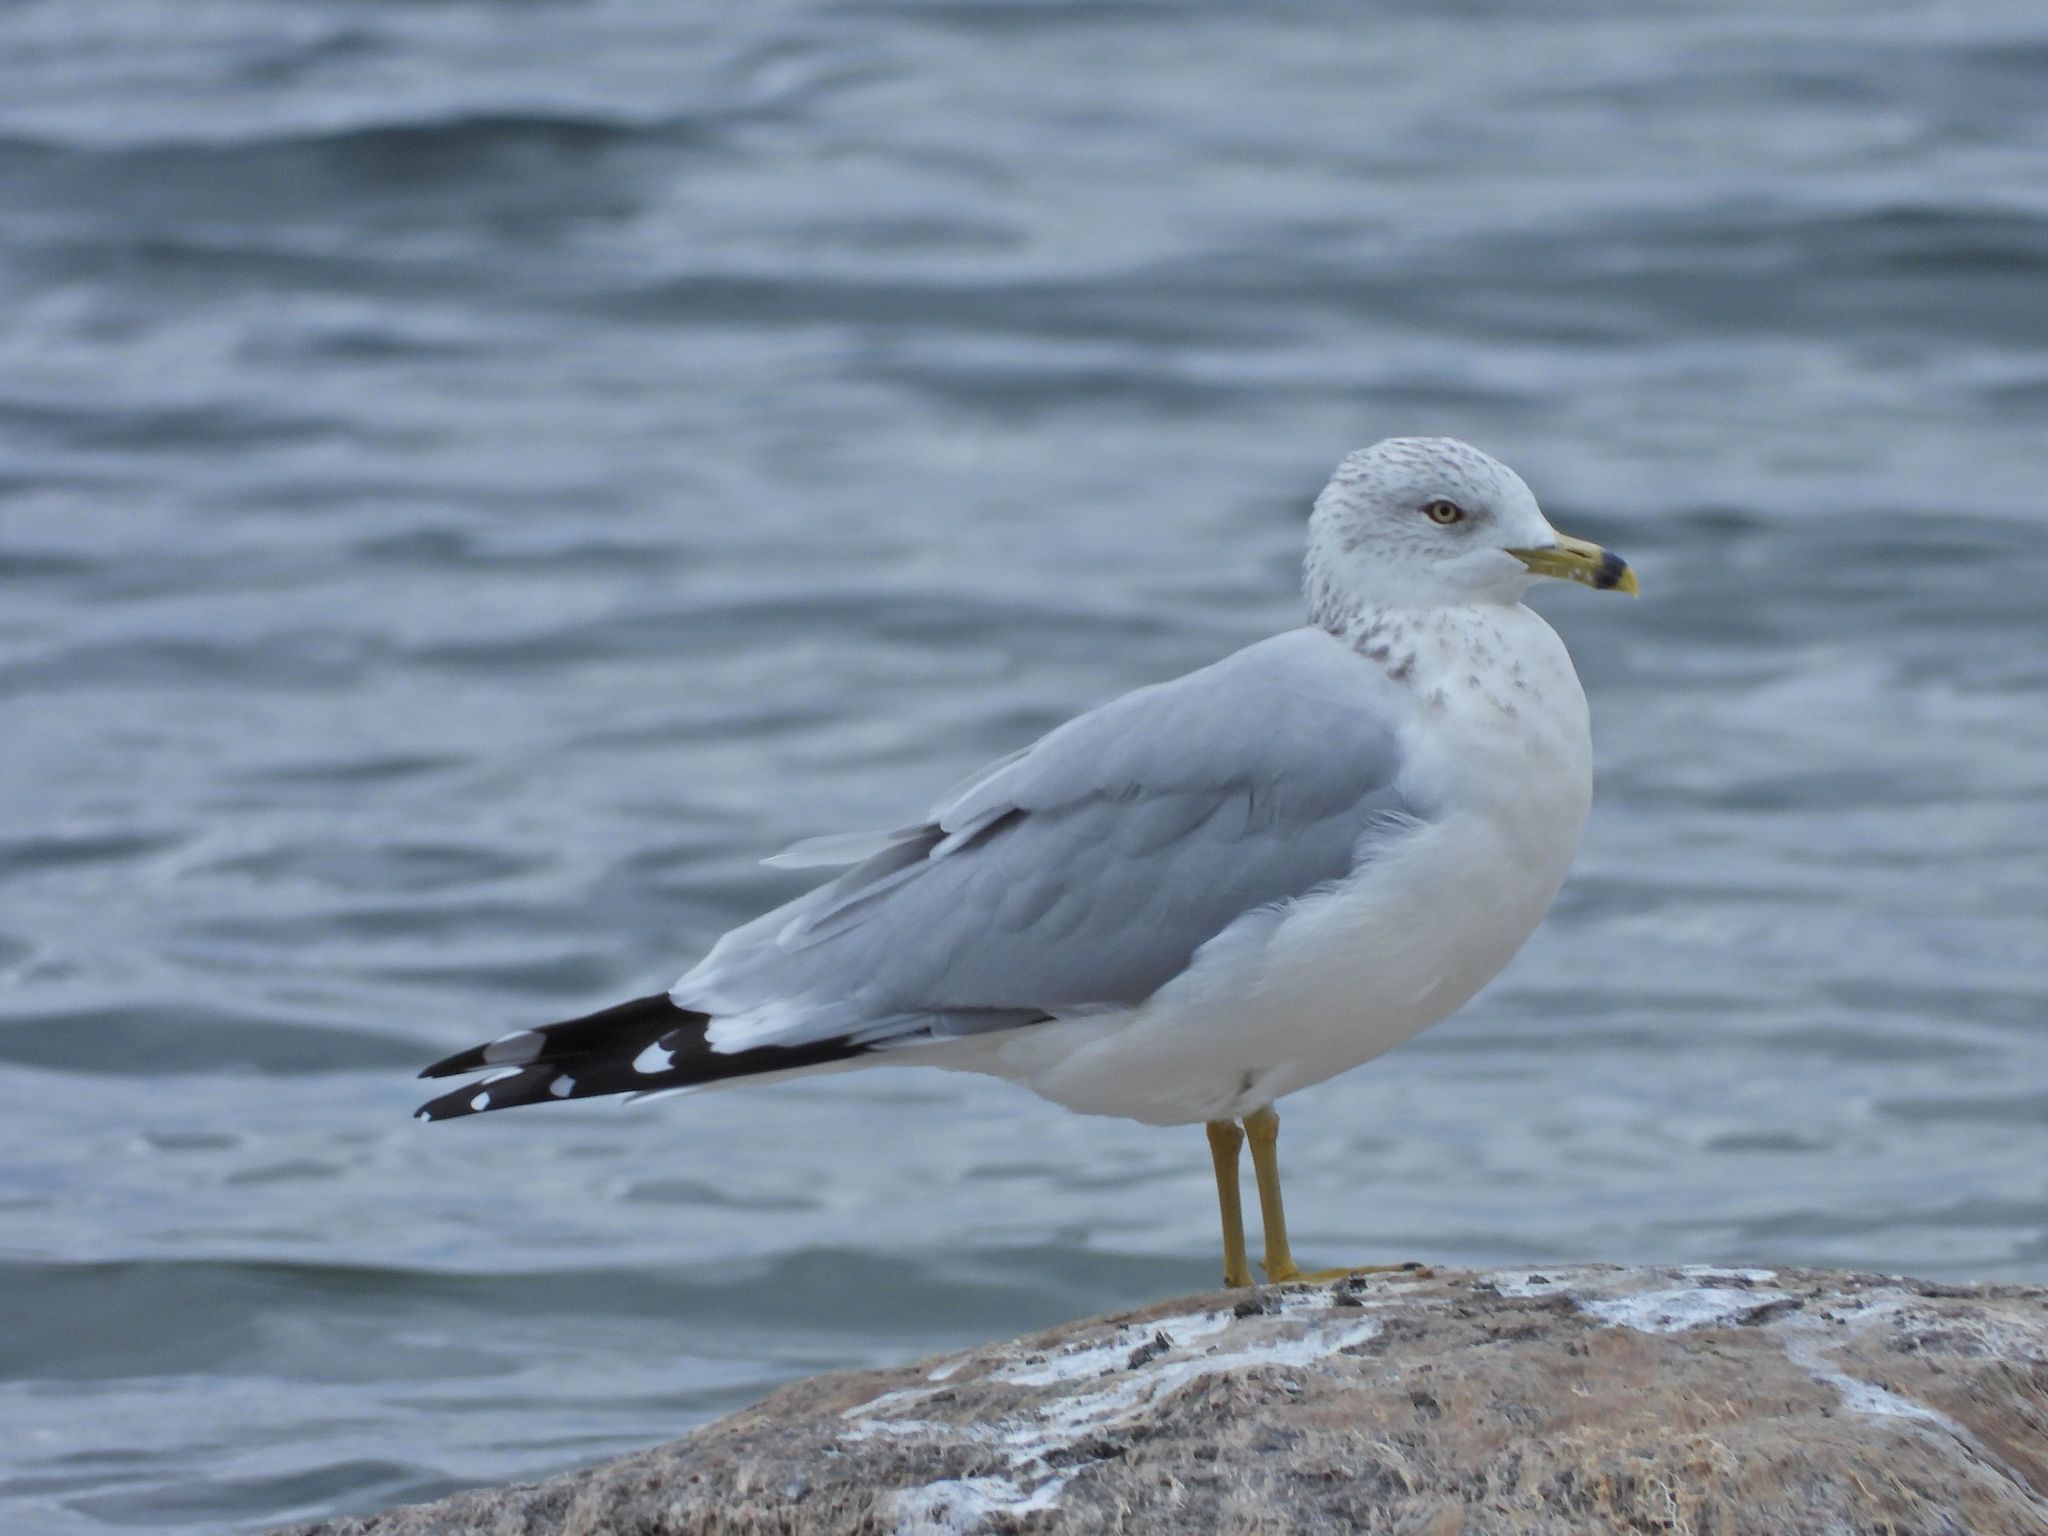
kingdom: Animalia
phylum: Chordata
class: Aves
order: Charadriiformes
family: Laridae
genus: Larus
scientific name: Larus delawarensis
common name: Ring-billed gull
